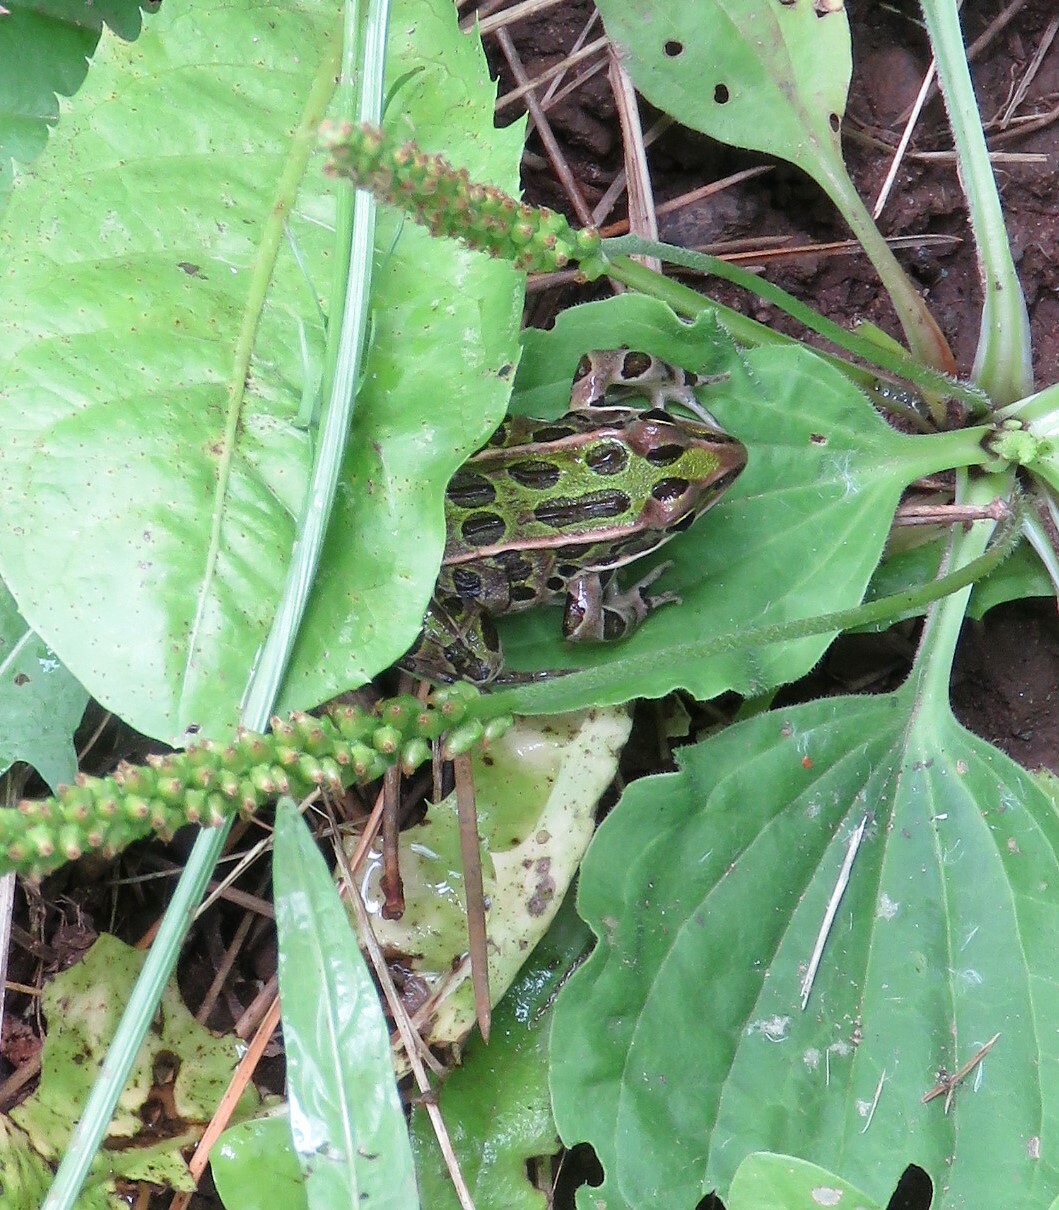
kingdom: Animalia
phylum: Chordata
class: Amphibia
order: Anura
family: Ranidae
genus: Lithobates
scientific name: Lithobates pipiens
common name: Northern leopard frog
